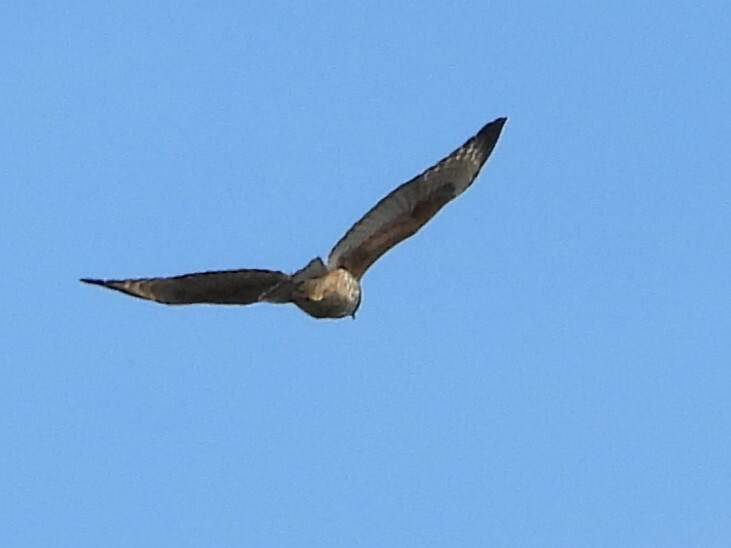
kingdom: Animalia
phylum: Chordata
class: Aves
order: Accipitriformes
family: Accipitridae
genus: Buteo
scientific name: Buteo lineatus
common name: Red-shouldered hawk
